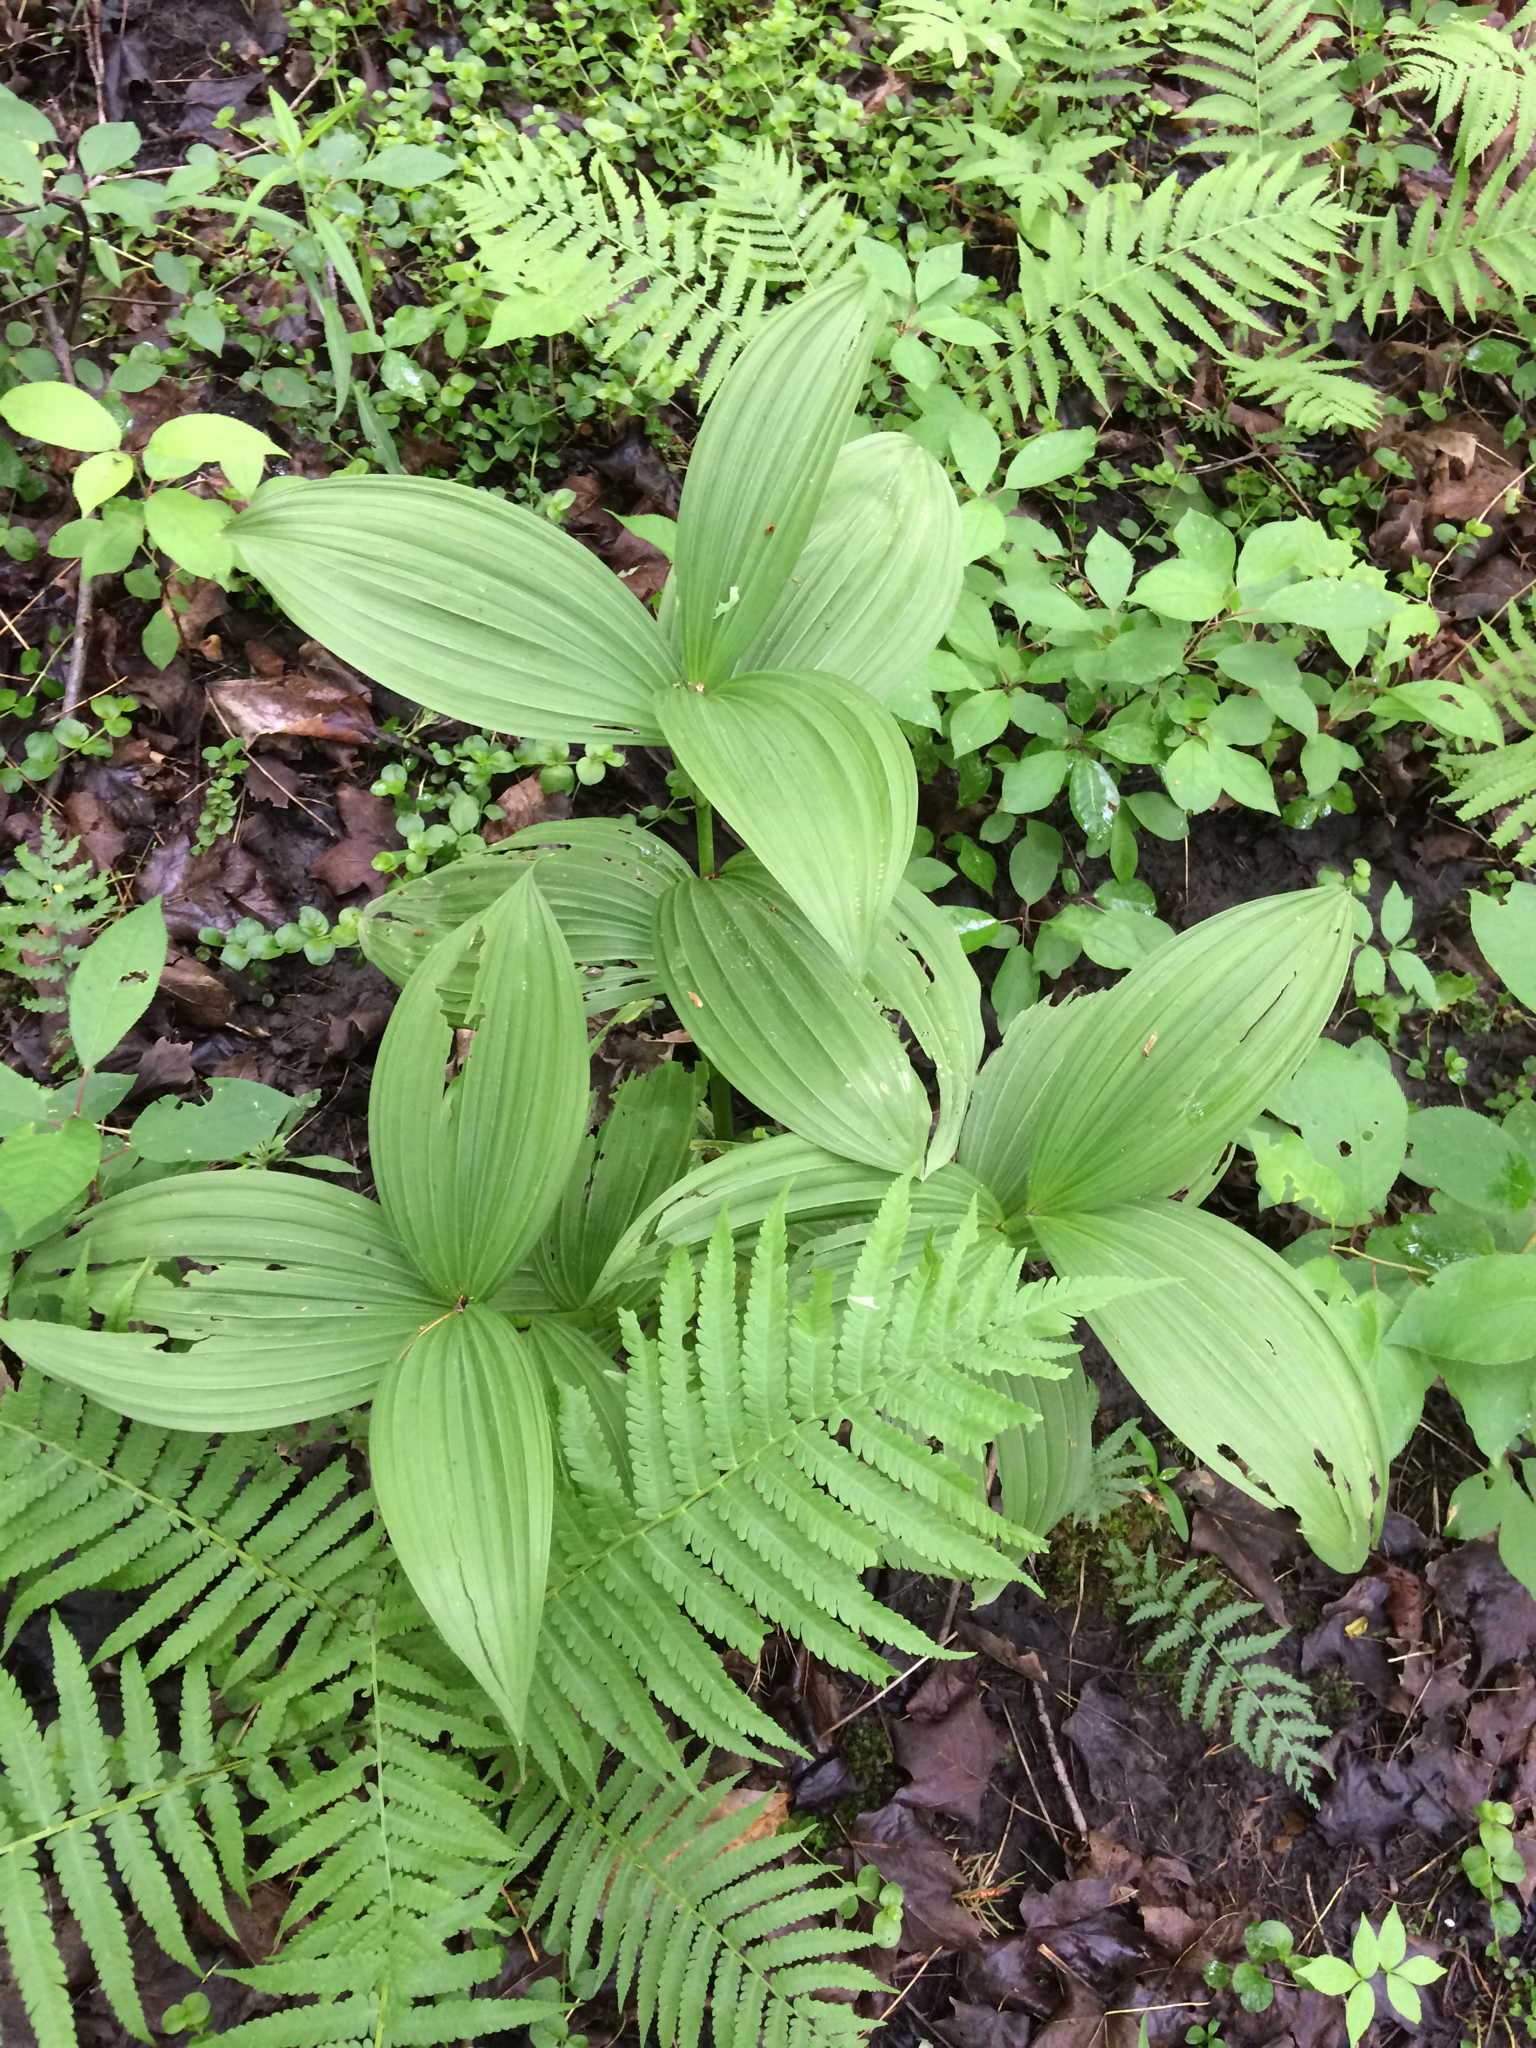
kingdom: Plantae
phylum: Tracheophyta
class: Liliopsida
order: Liliales
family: Melanthiaceae
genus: Veratrum
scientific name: Veratrum viride
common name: American false hellebore
